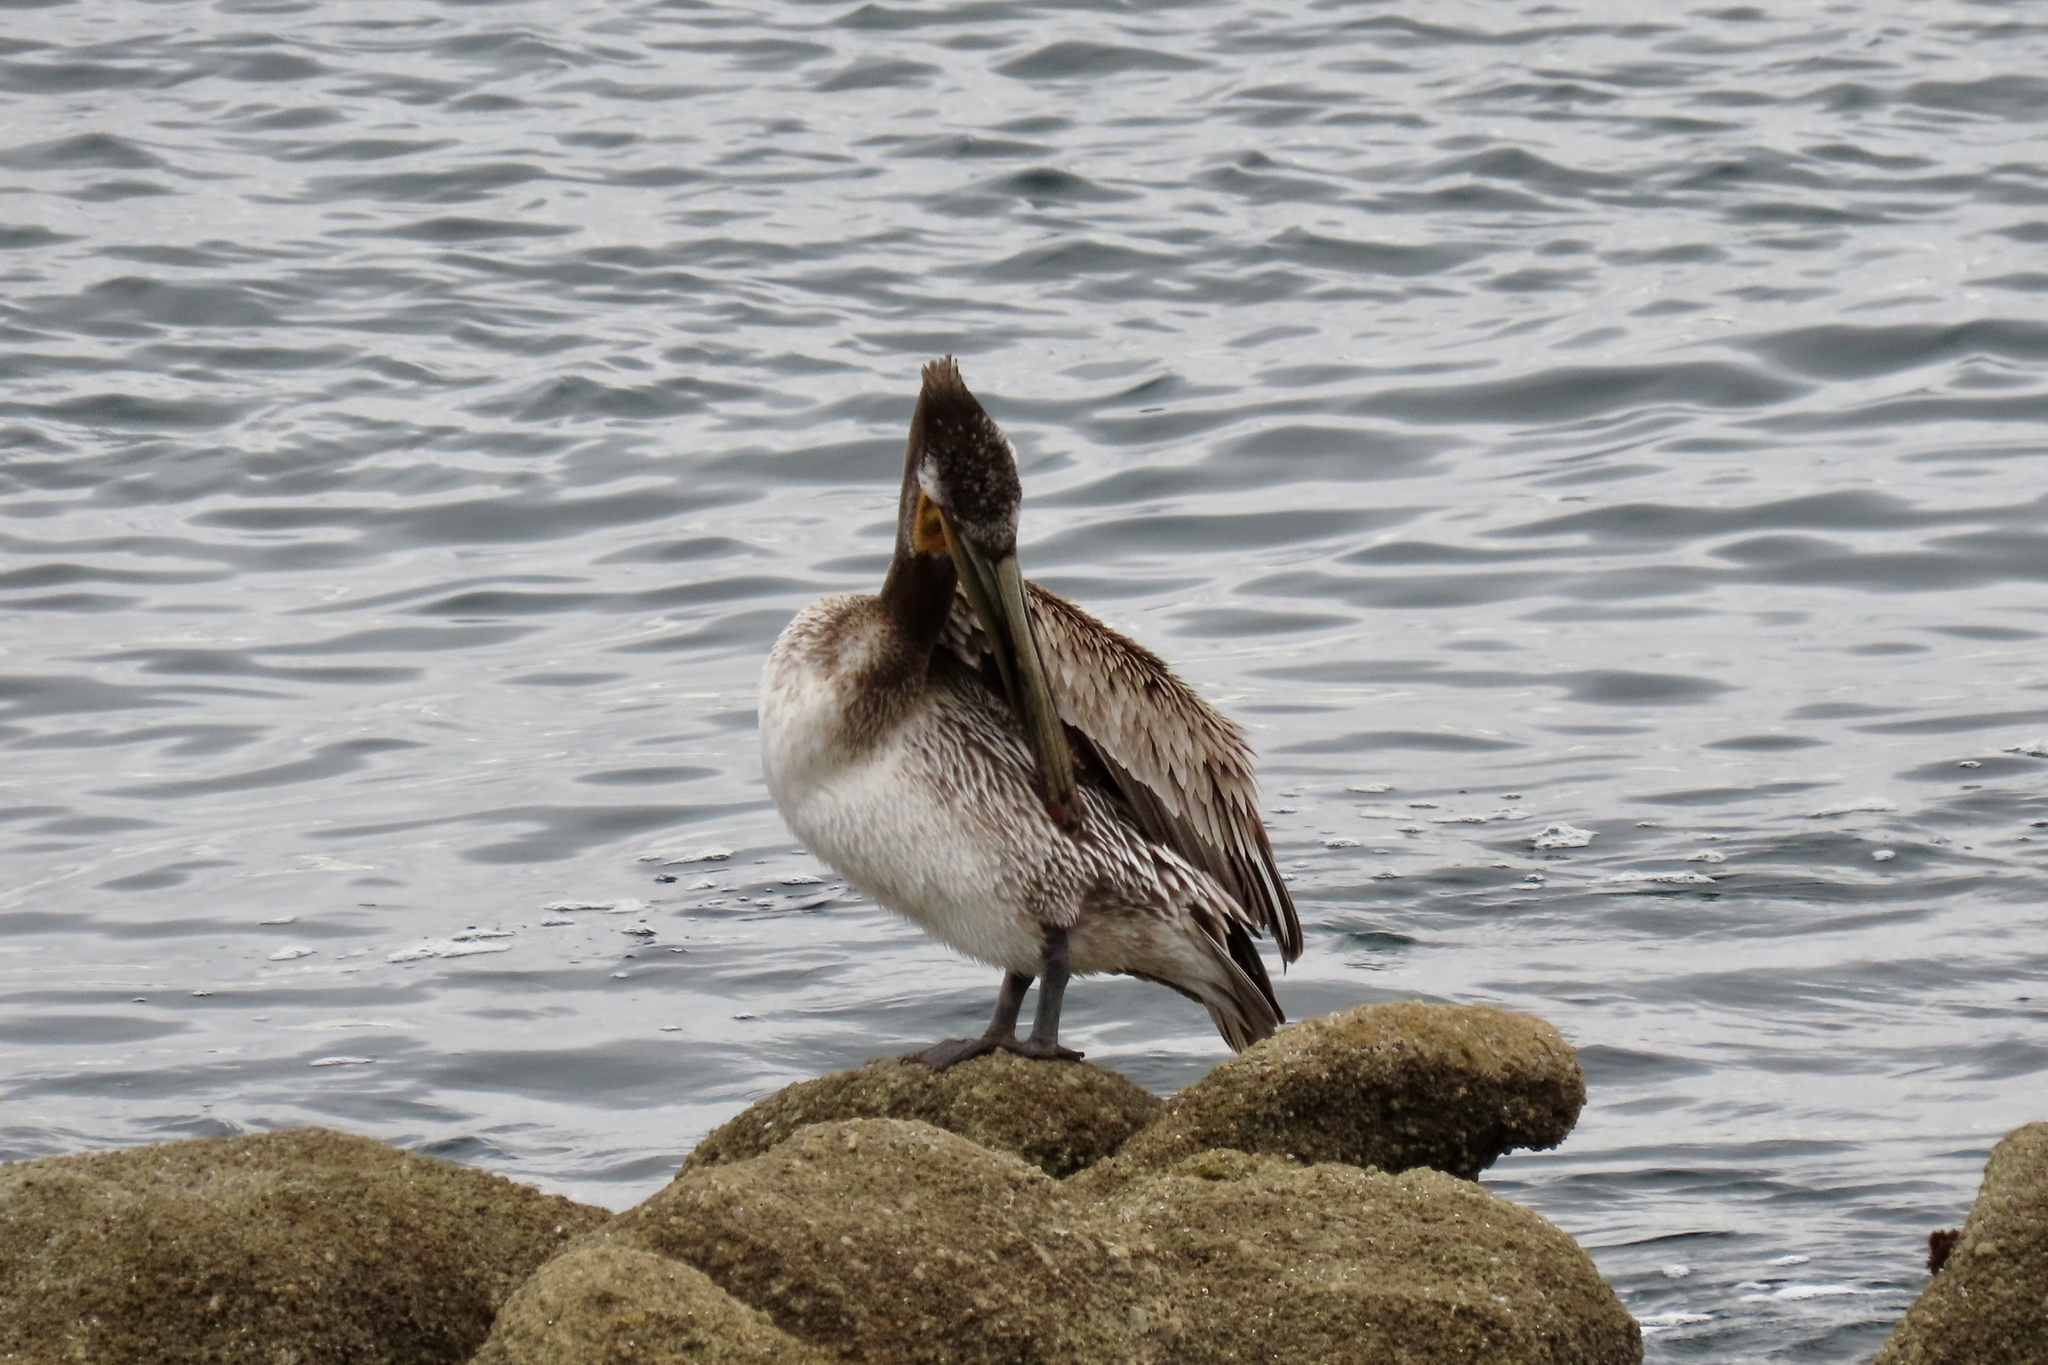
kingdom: Animalia
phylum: Chordata
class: Aves
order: Pelecaniformes
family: Pelecanidae
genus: Pelecanus
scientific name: Pelecanus occidentalis
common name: Brown pelican
